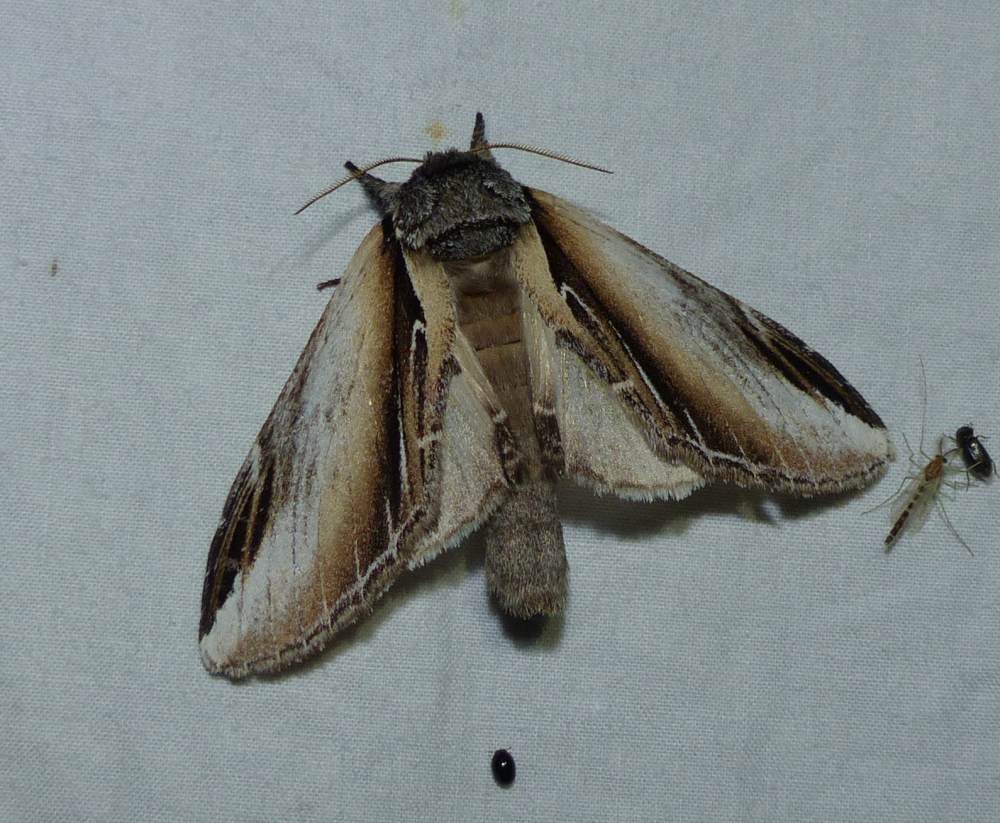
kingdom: Animalia
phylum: Arthropoda
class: Insecta
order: Lepidoptera
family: Notodontidae
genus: Pheosia
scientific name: Pheosia rimosa
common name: Black-rimmed prominent
